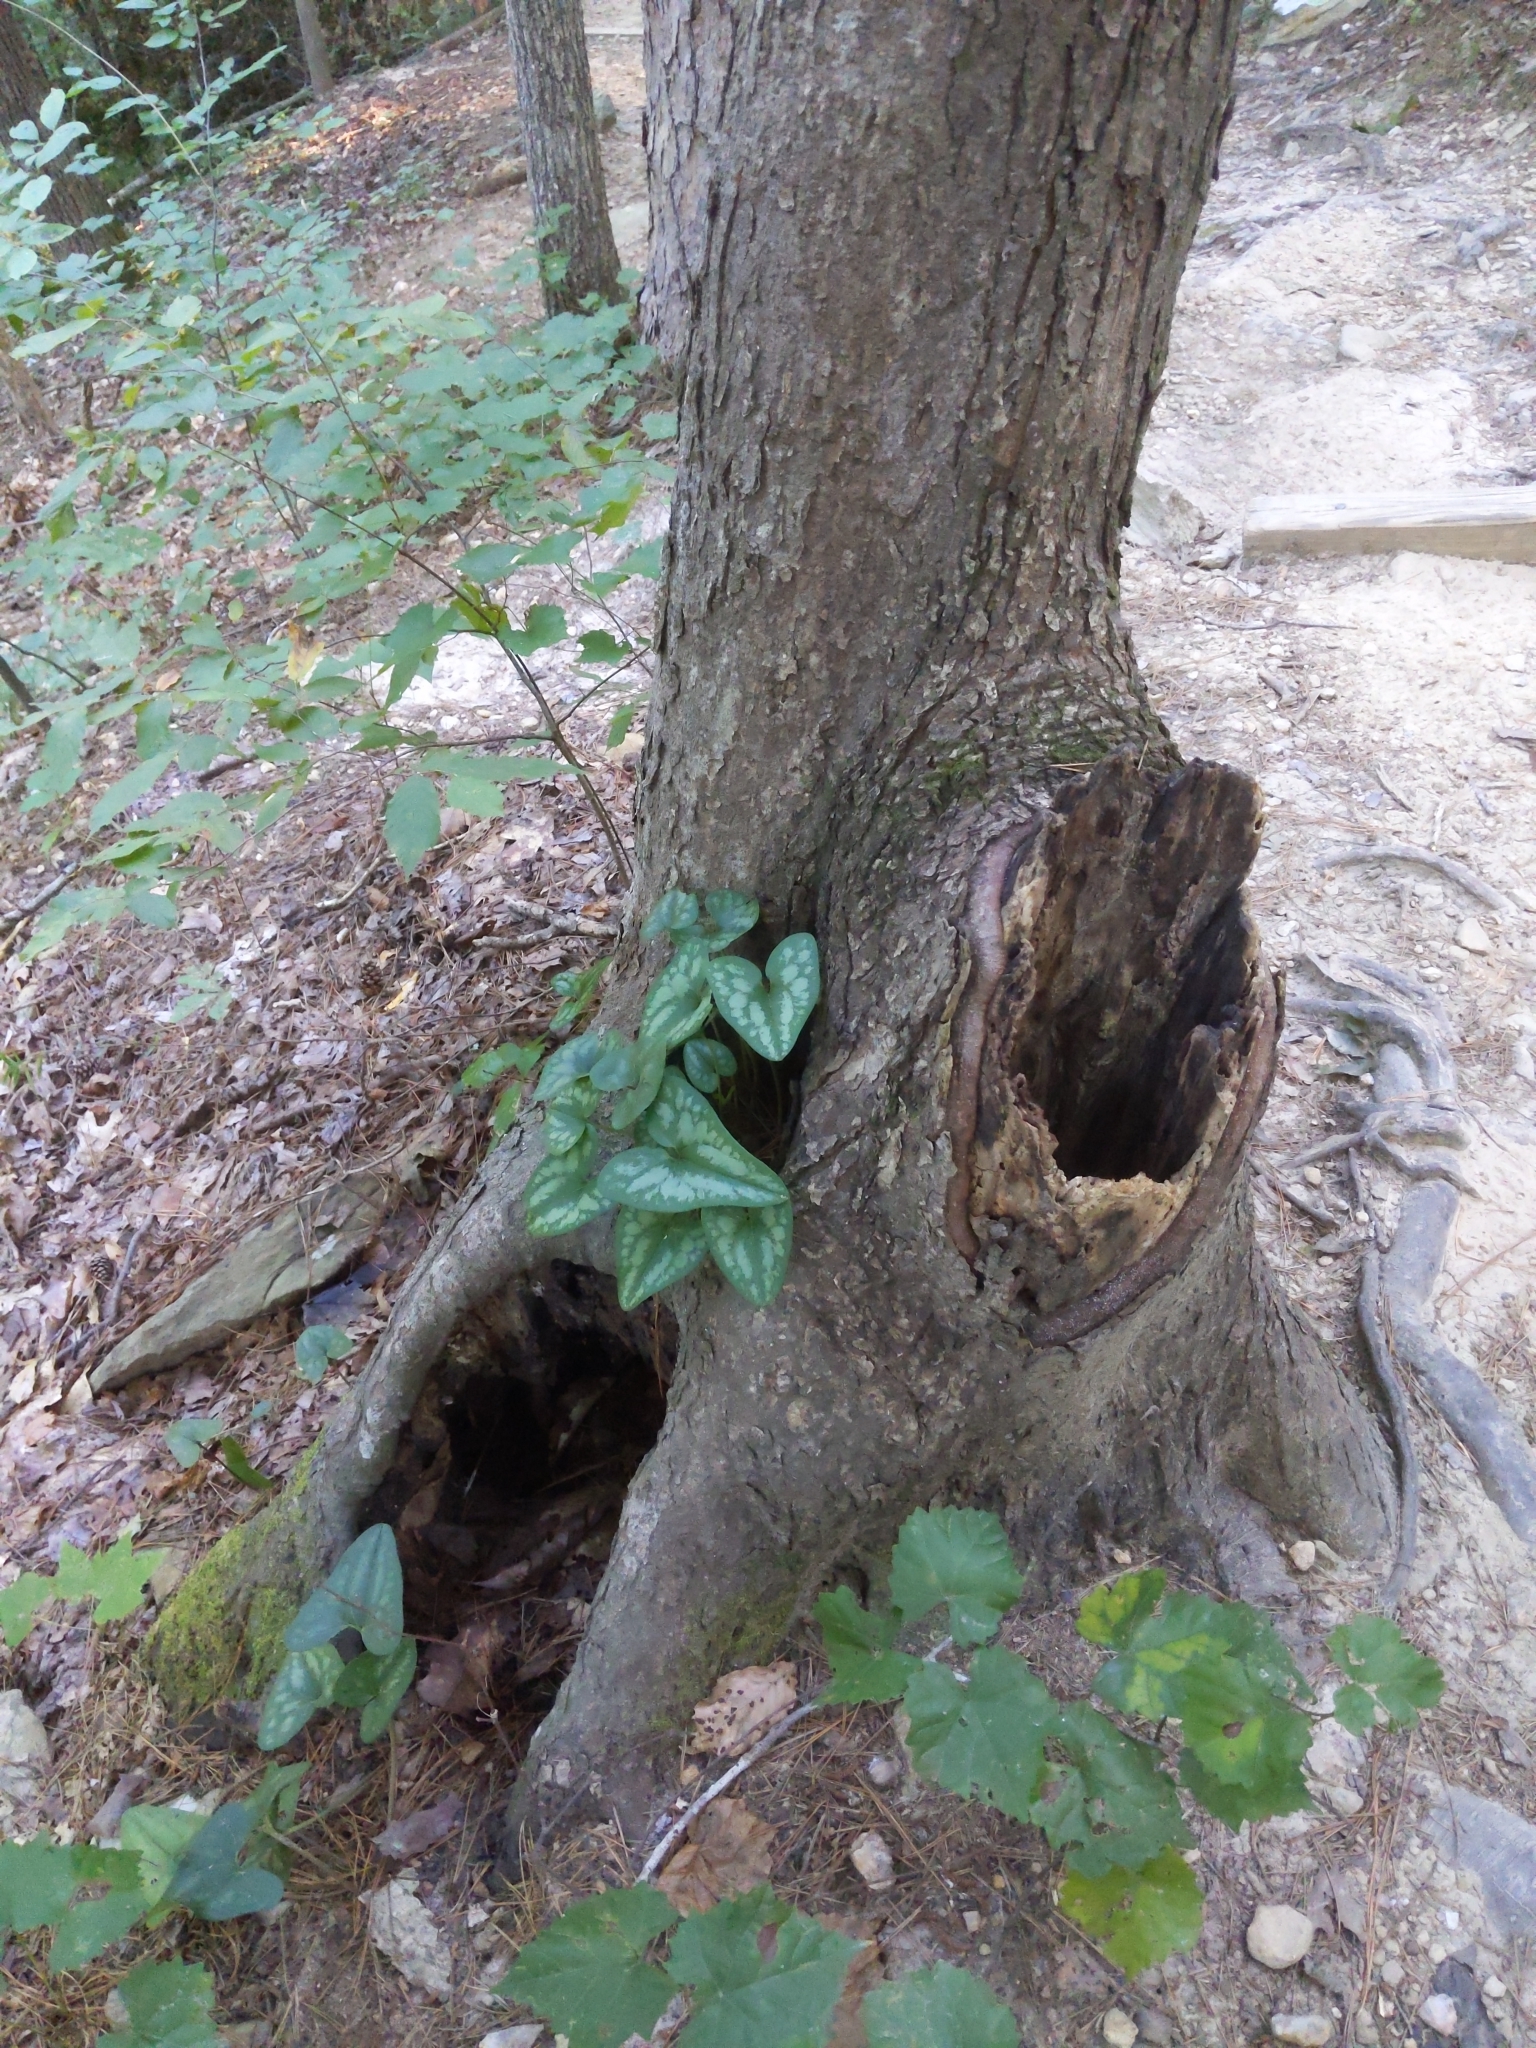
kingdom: Plantae
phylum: Tracheophyta
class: Magnoliopsida
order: Piperales
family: Aristolochiaceae
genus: Hexastylis
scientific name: Hexastylis arifolia
